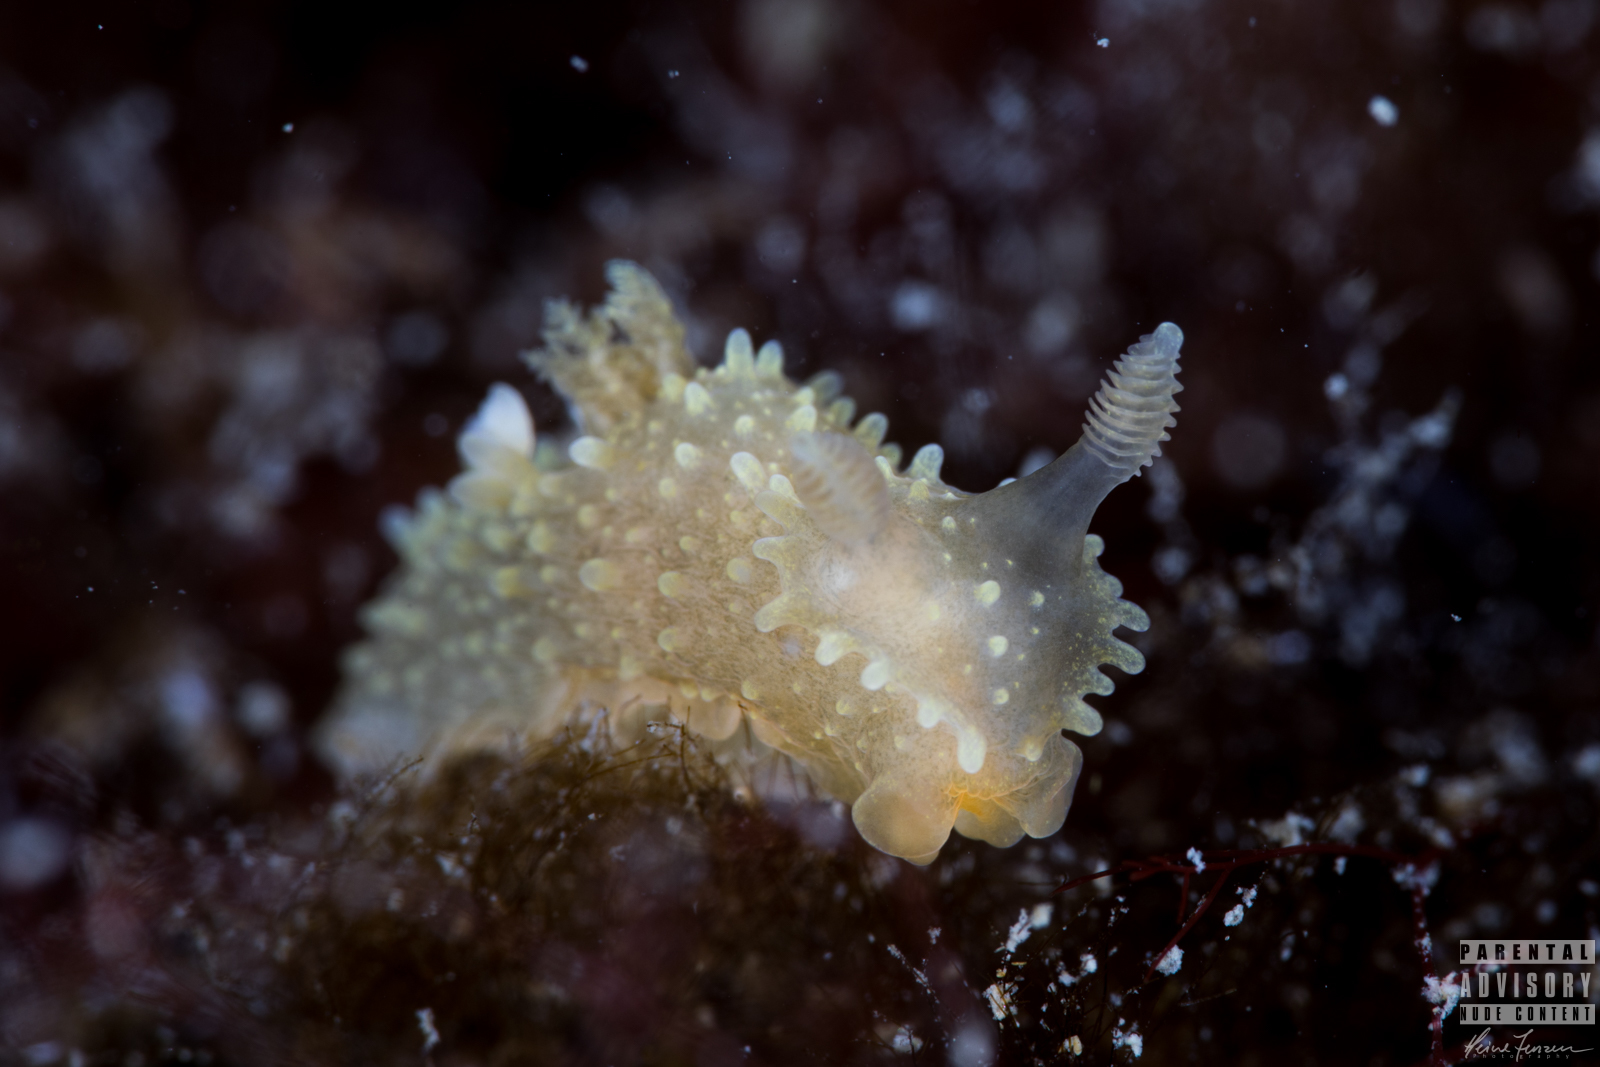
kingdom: Animalia
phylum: Mollusca
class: Gastropoda
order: Nudibranchia
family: Polyceridae
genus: Palio
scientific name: Palio dubia
